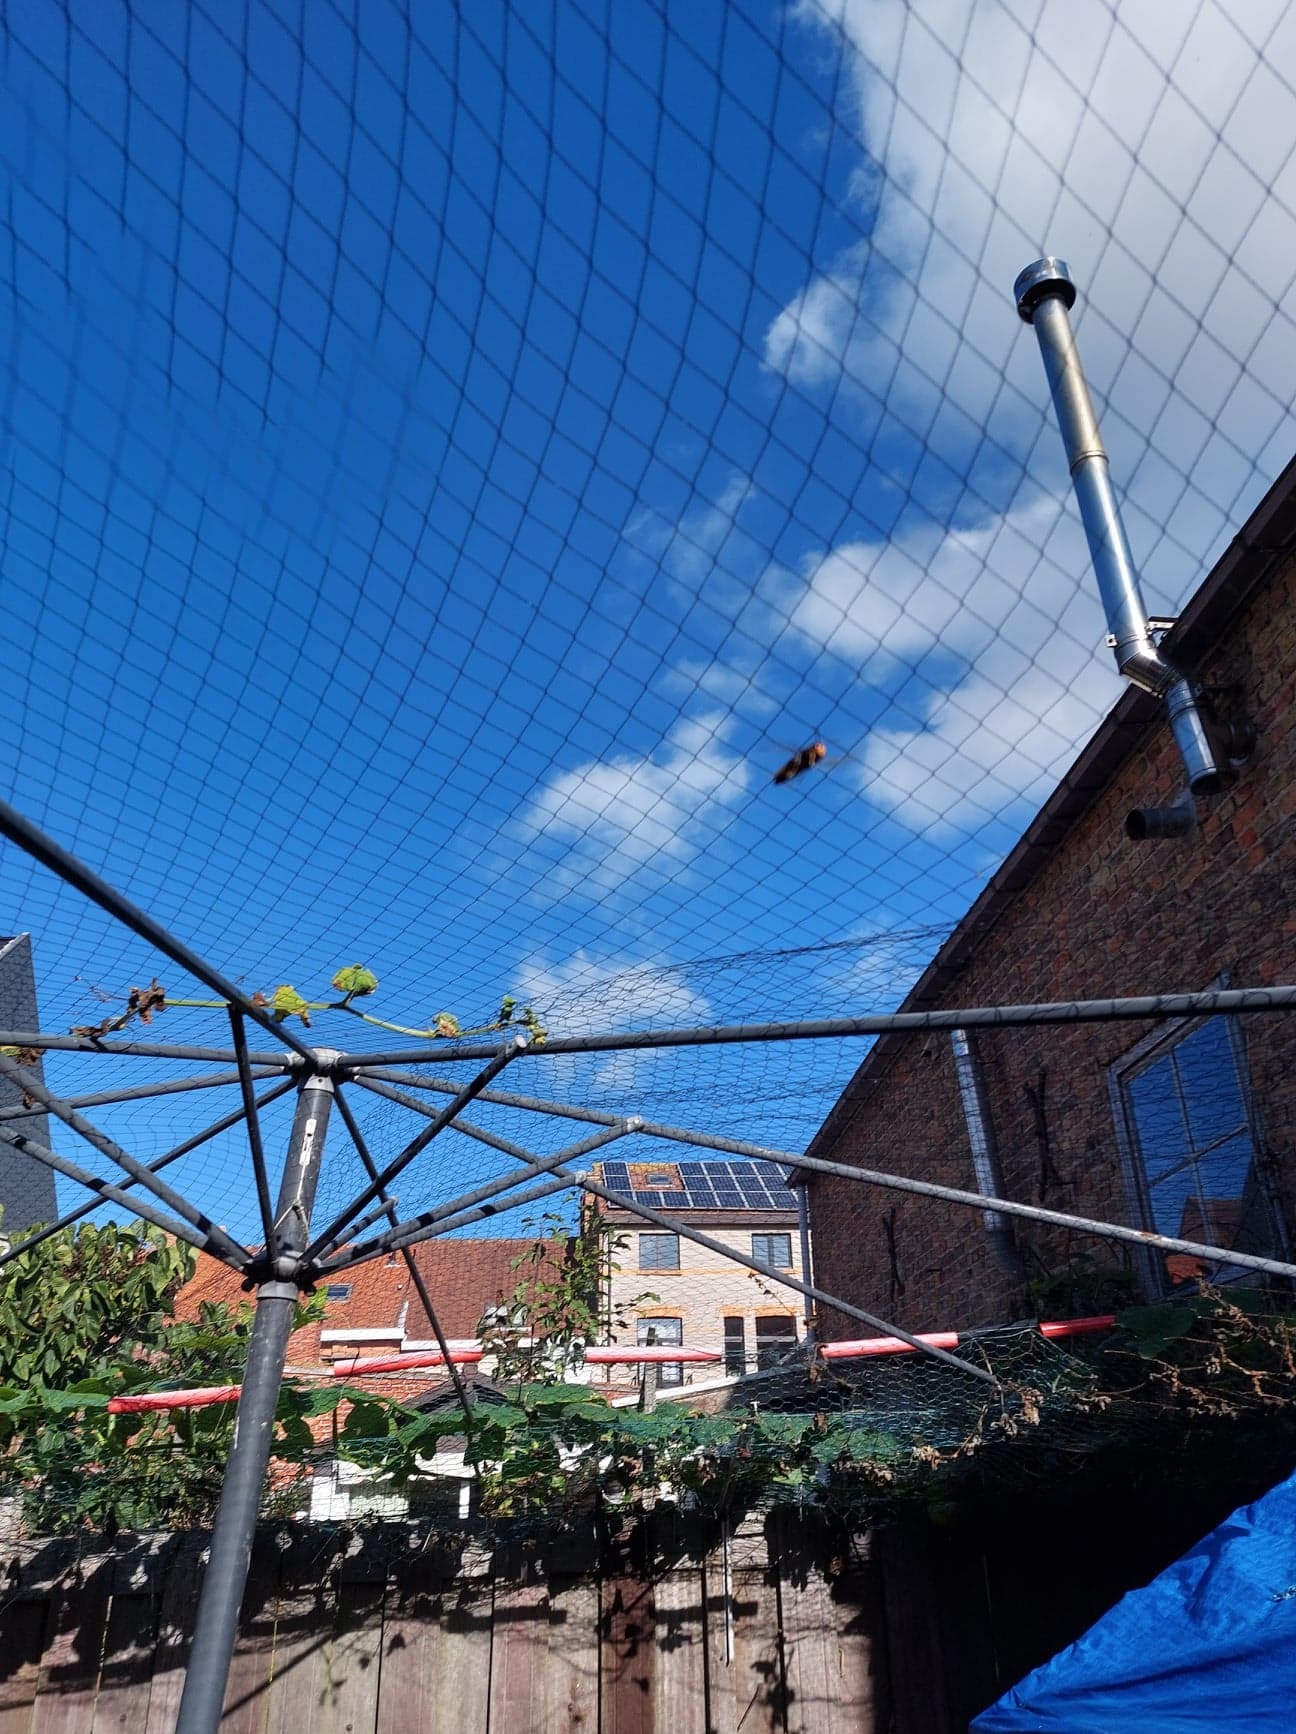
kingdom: Animalia
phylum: Arthropoda
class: Insecta
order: Hymenoptera
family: Vespidae
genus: Vespa
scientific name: Vespa velutina
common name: Asian hornet
